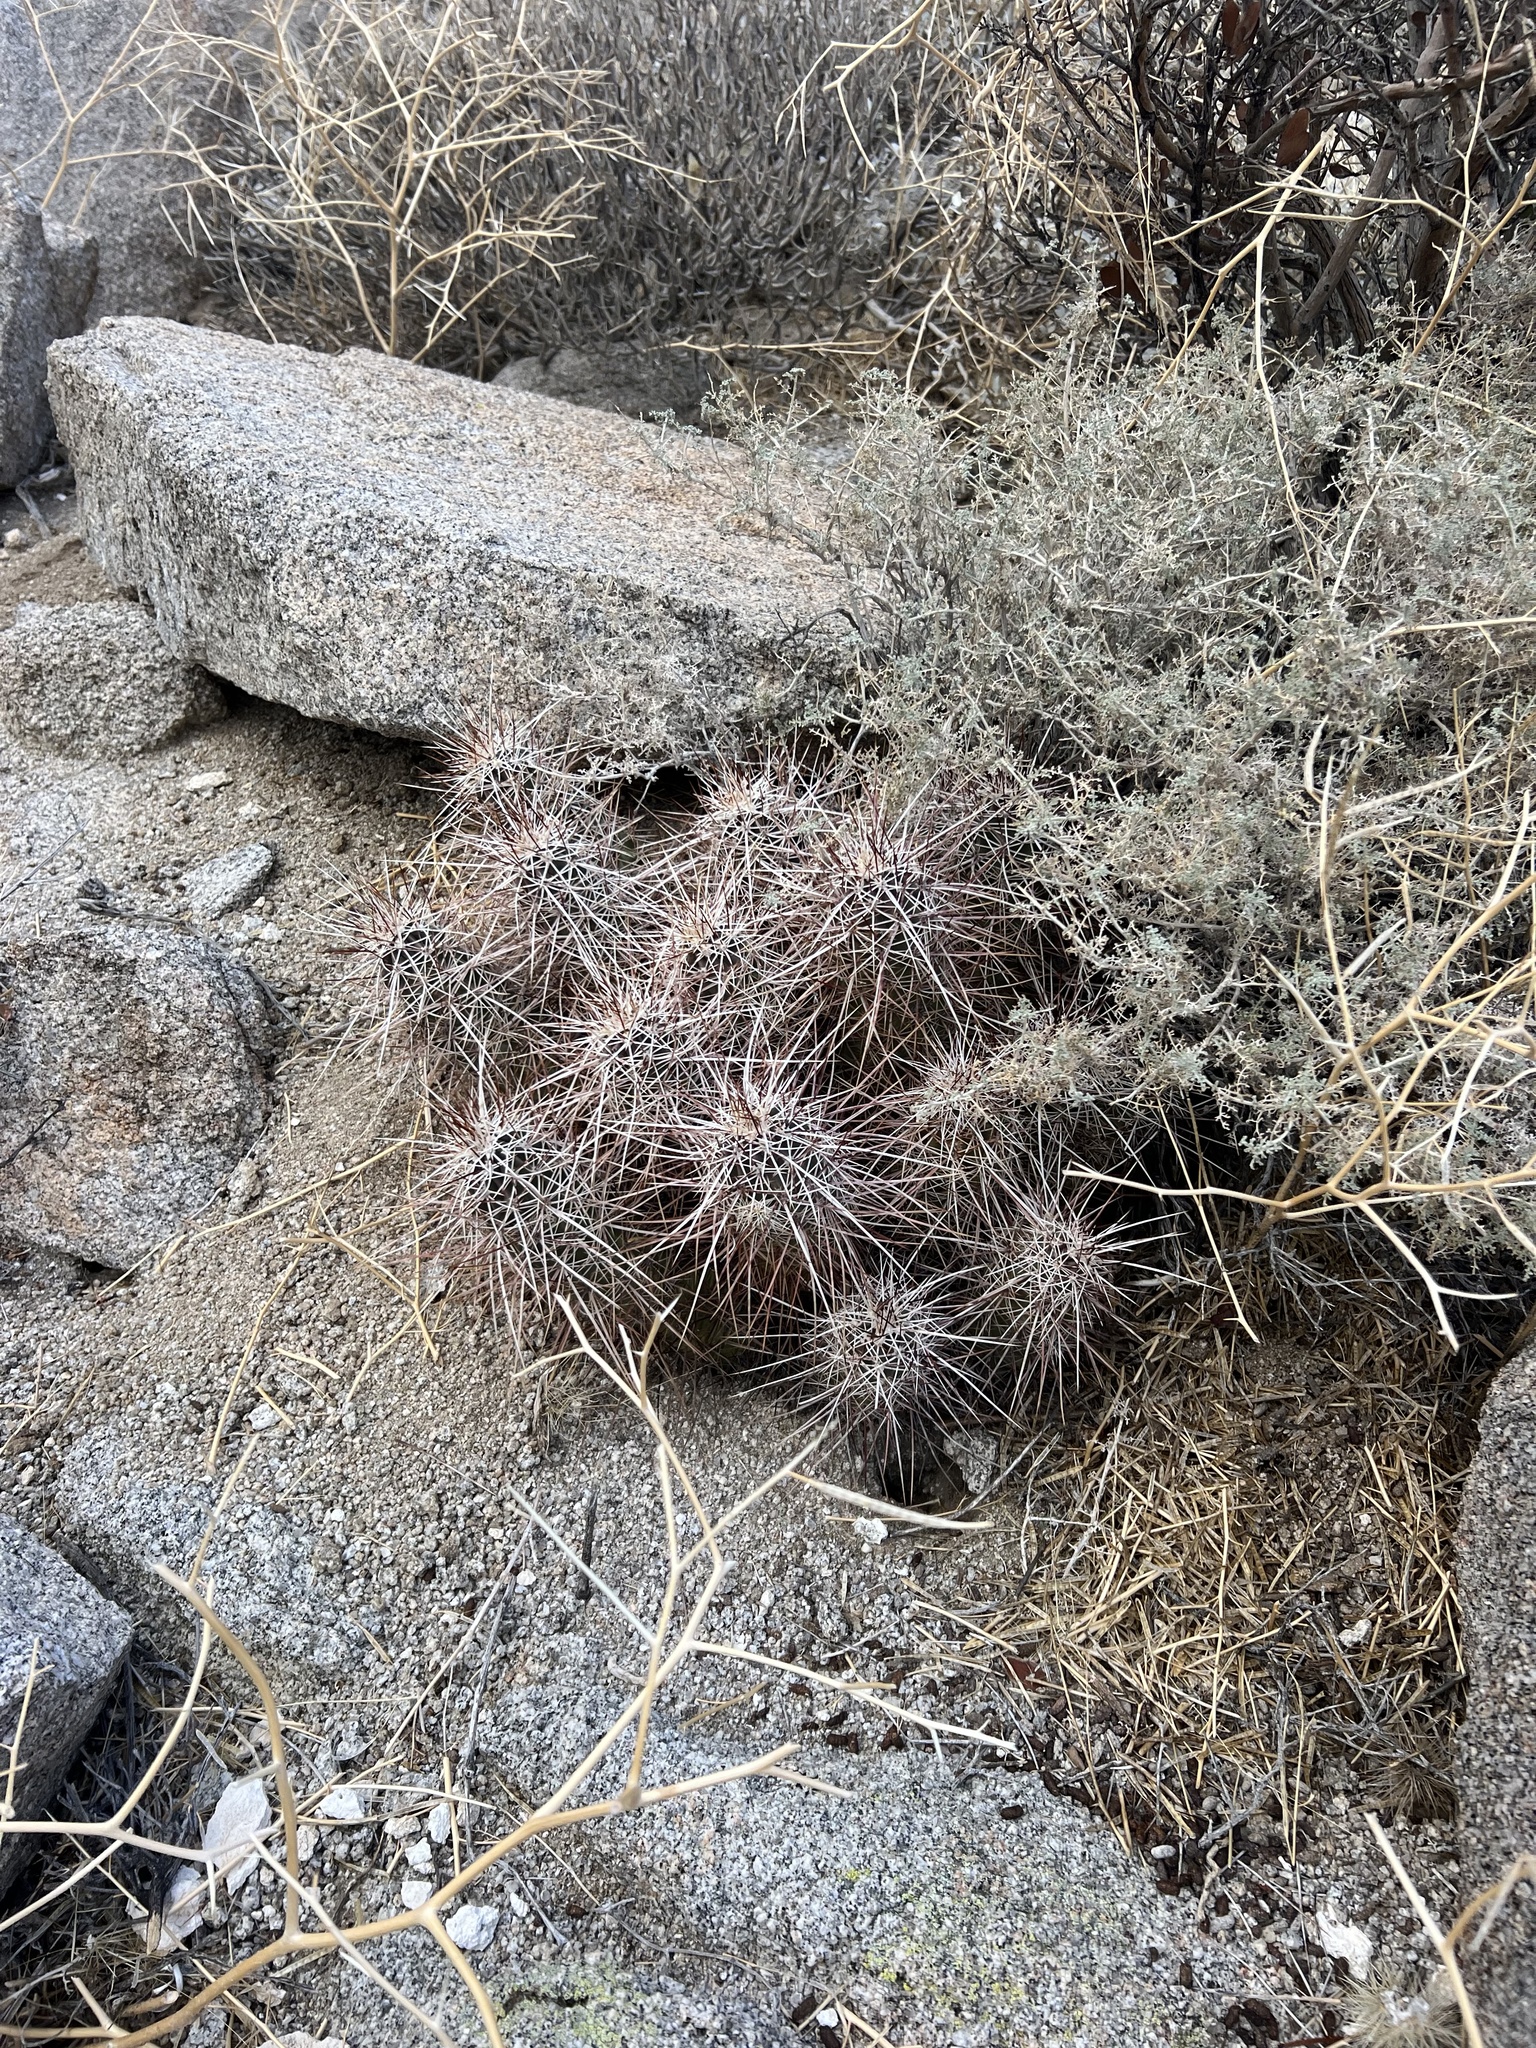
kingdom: Plantae
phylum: Tracheophyta
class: Magnoliopsida
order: Caryophyllales
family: Cactaceae
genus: Echinocereus
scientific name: Echinocereus engelmannii
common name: Engelmann's hedgehog cactus
